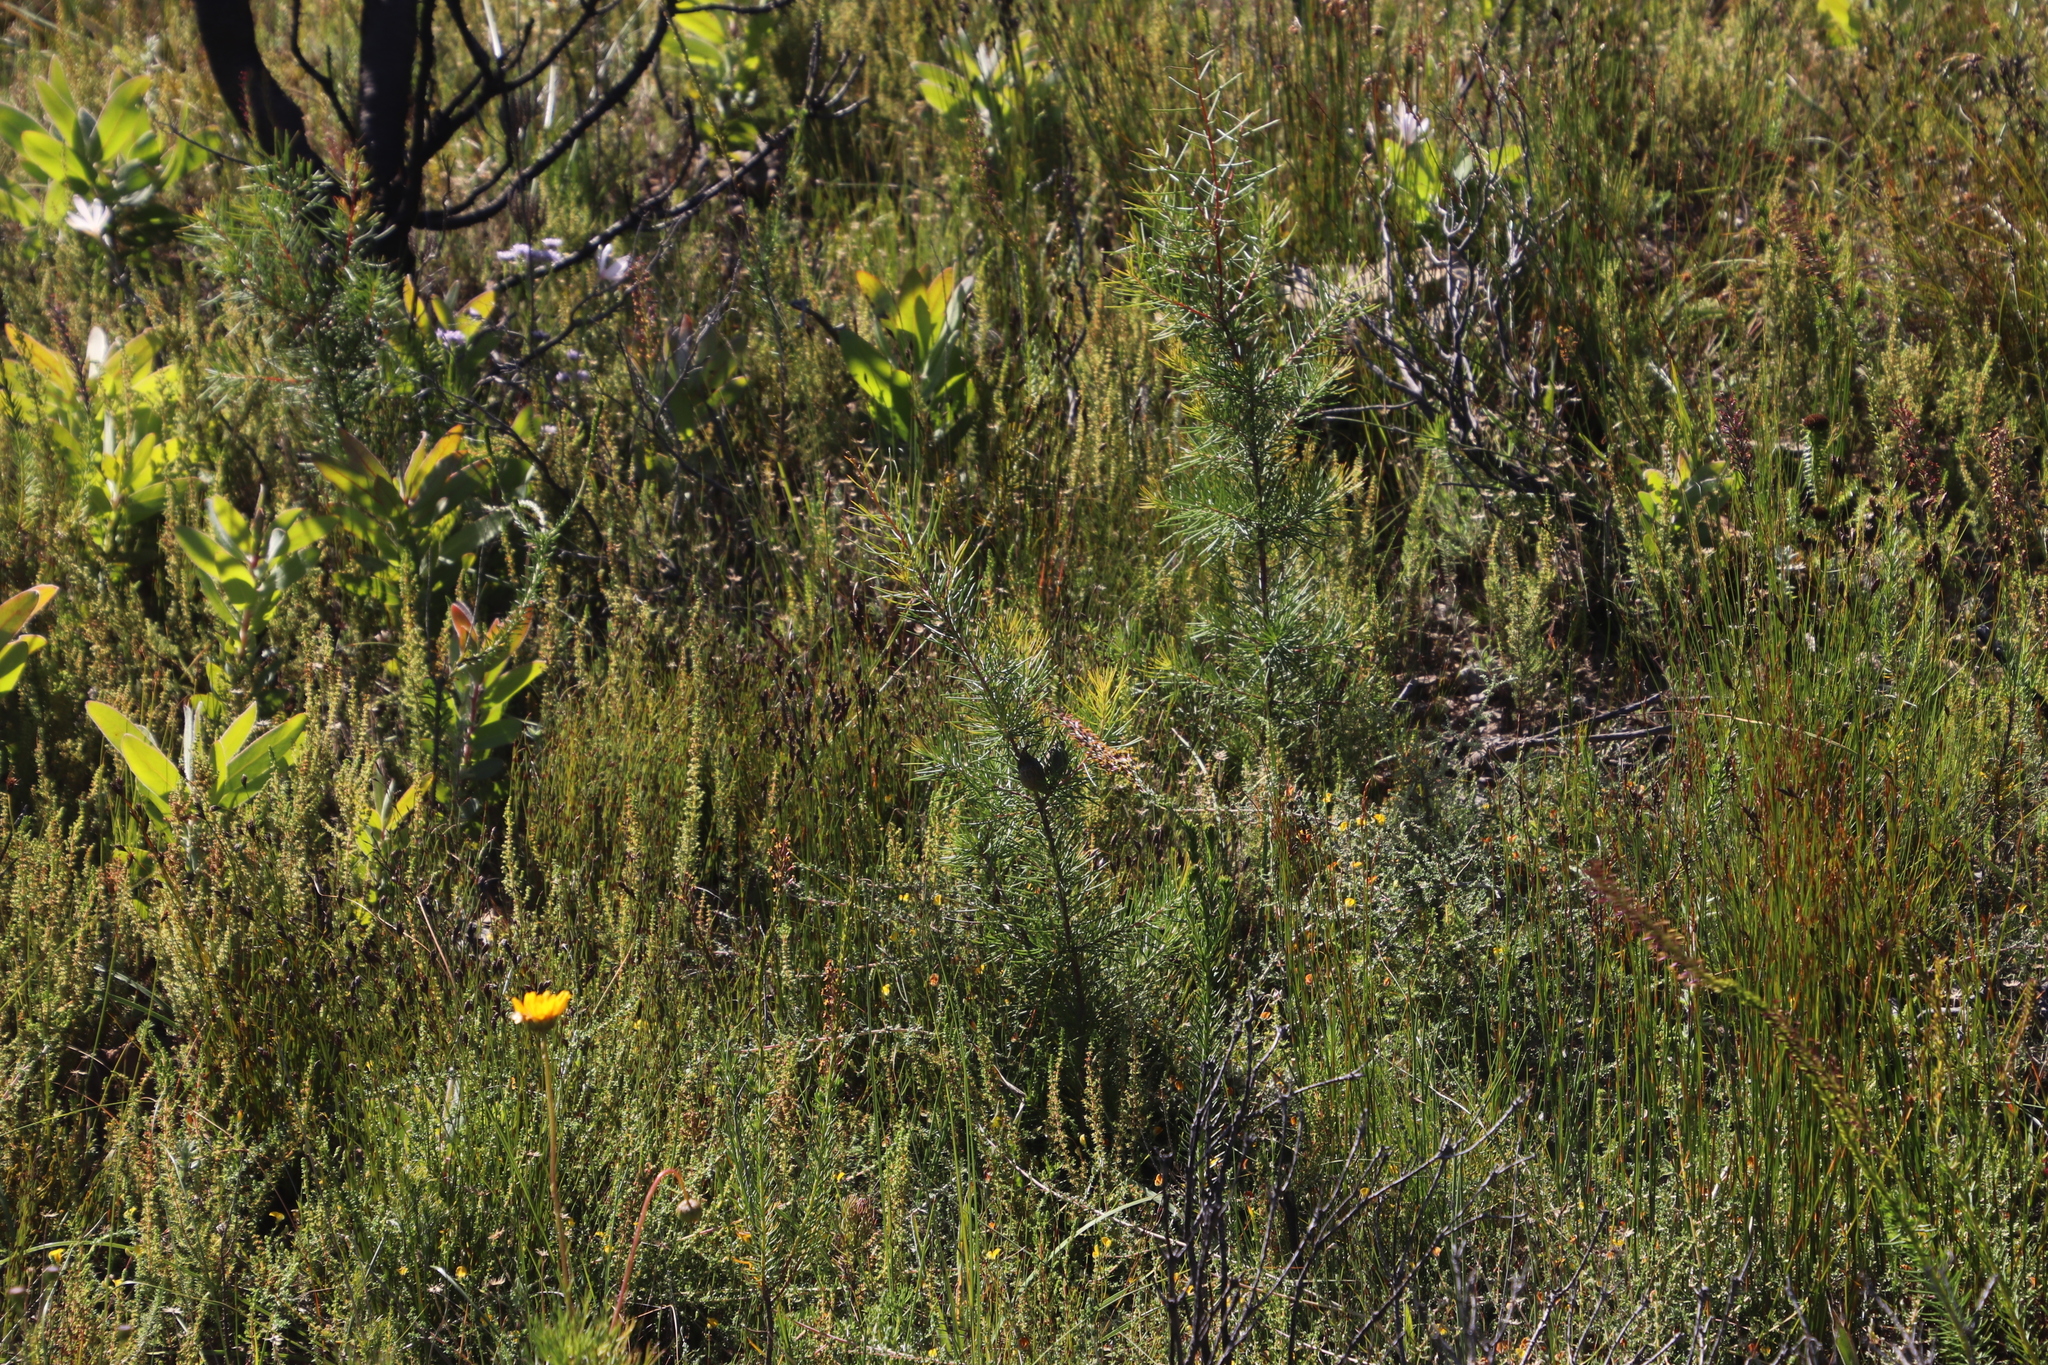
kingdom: Plantae
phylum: Tracheophyta
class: Magnoliopsida
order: Proteales
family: Proteaceae
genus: Hakea
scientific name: Hakea sericea
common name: Needle bush
